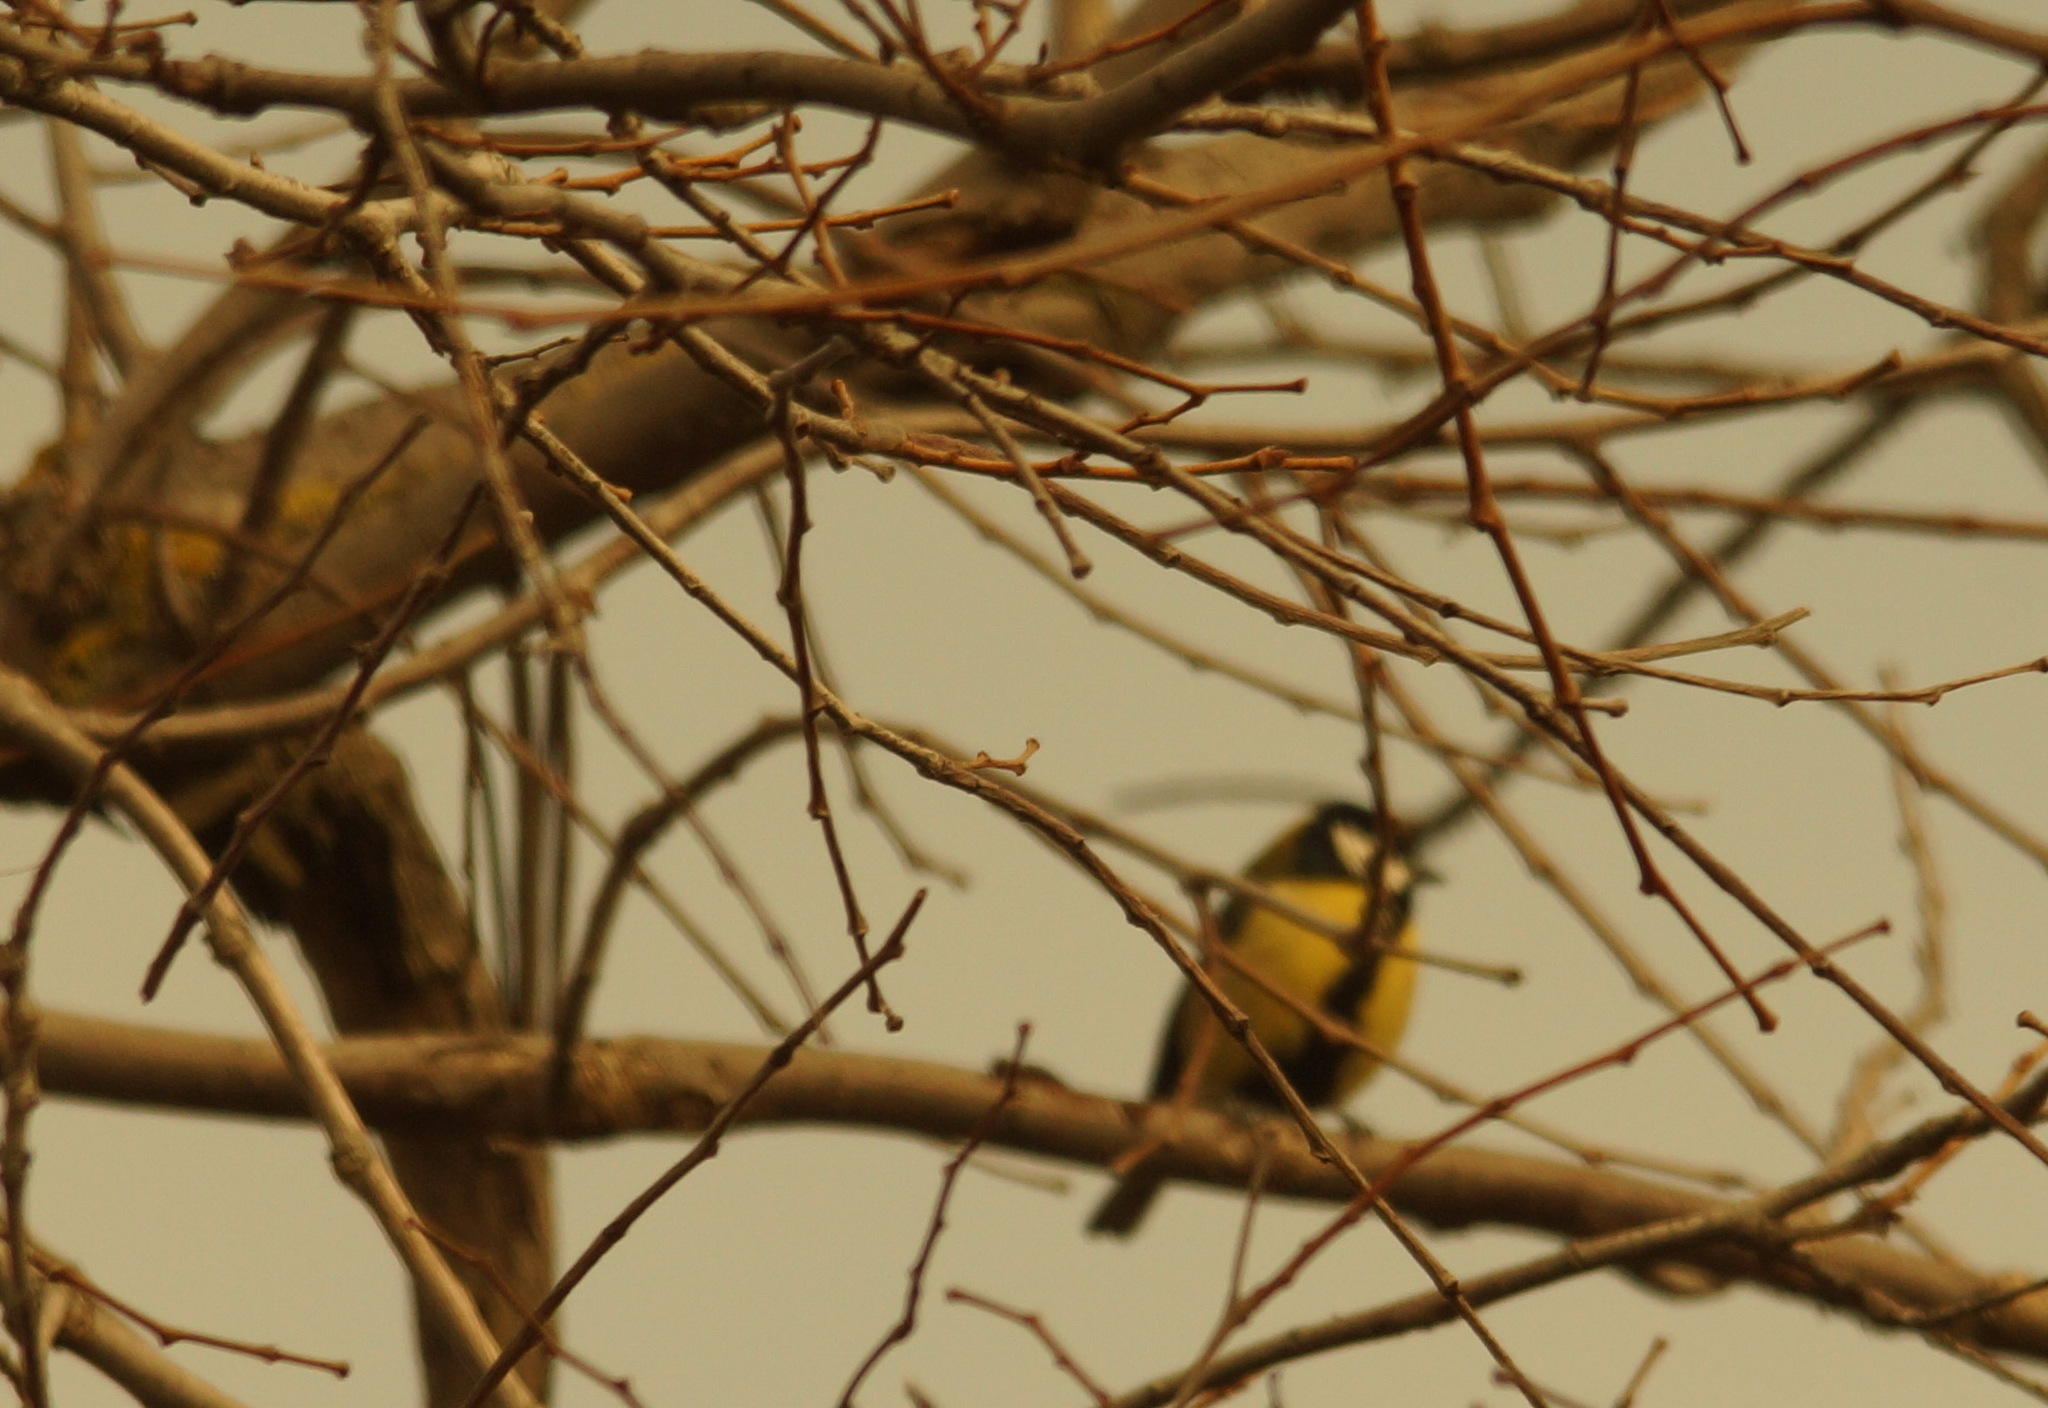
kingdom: Animalia
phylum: Chordata
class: Aves
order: Passeriformes
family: Paridae
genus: Parus
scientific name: Parus major
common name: Great tit
